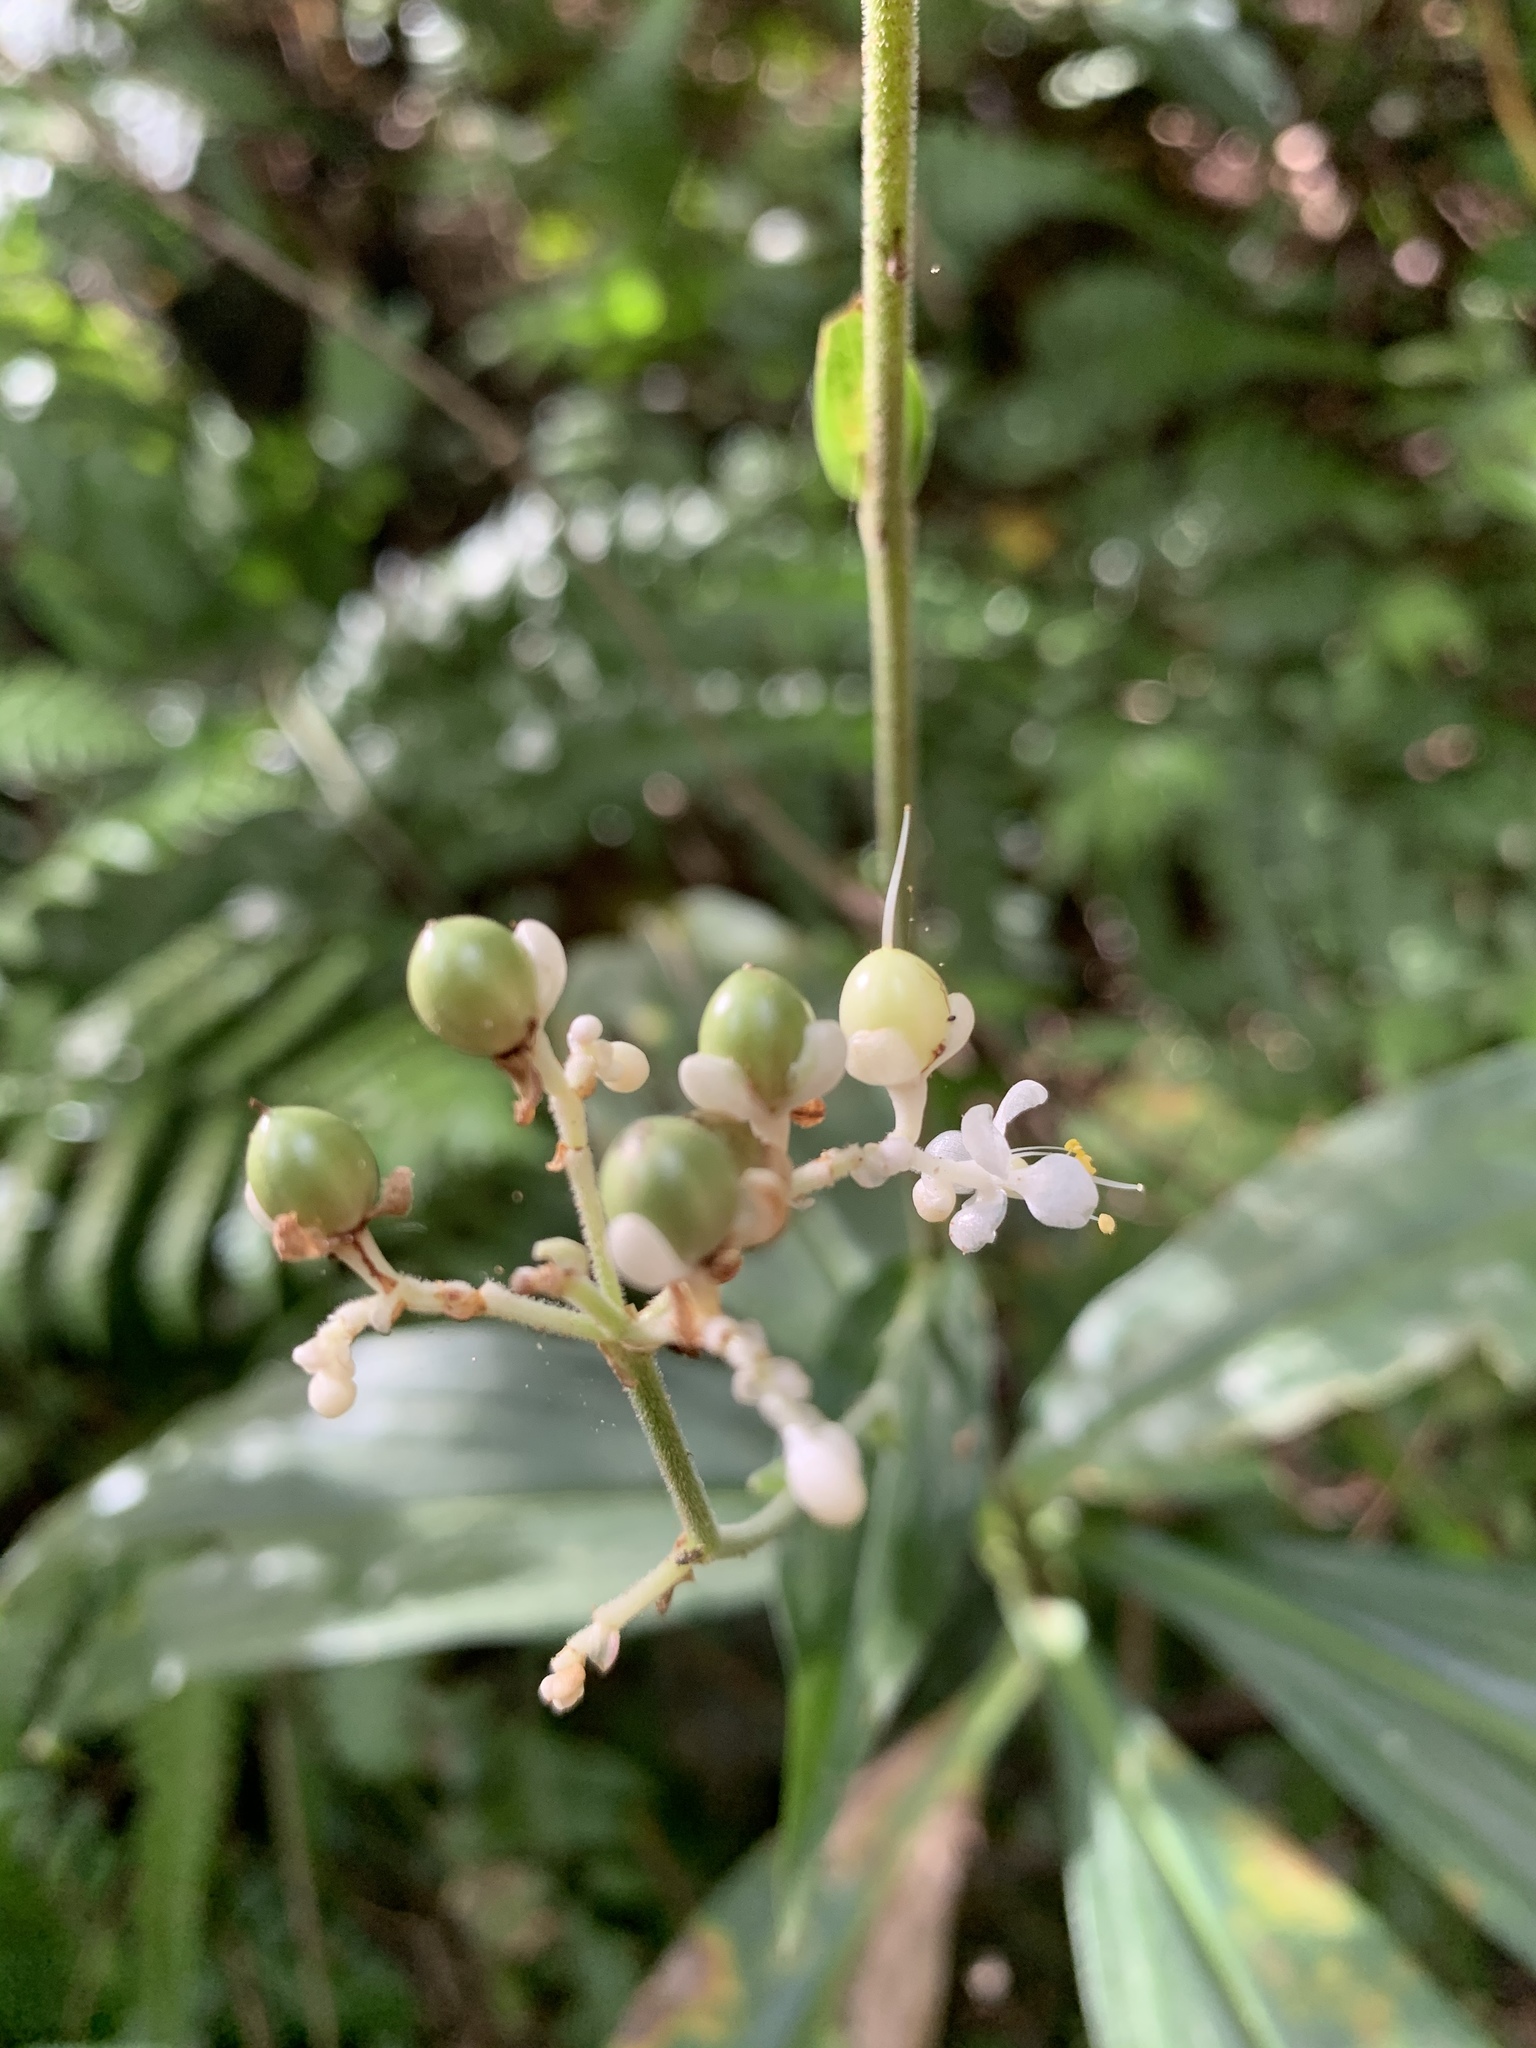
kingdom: Plantae
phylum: Tracheophyta
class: Liliopsida
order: Commelinales
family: Commelinaceae
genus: Pollia
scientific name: Pollia japonica
